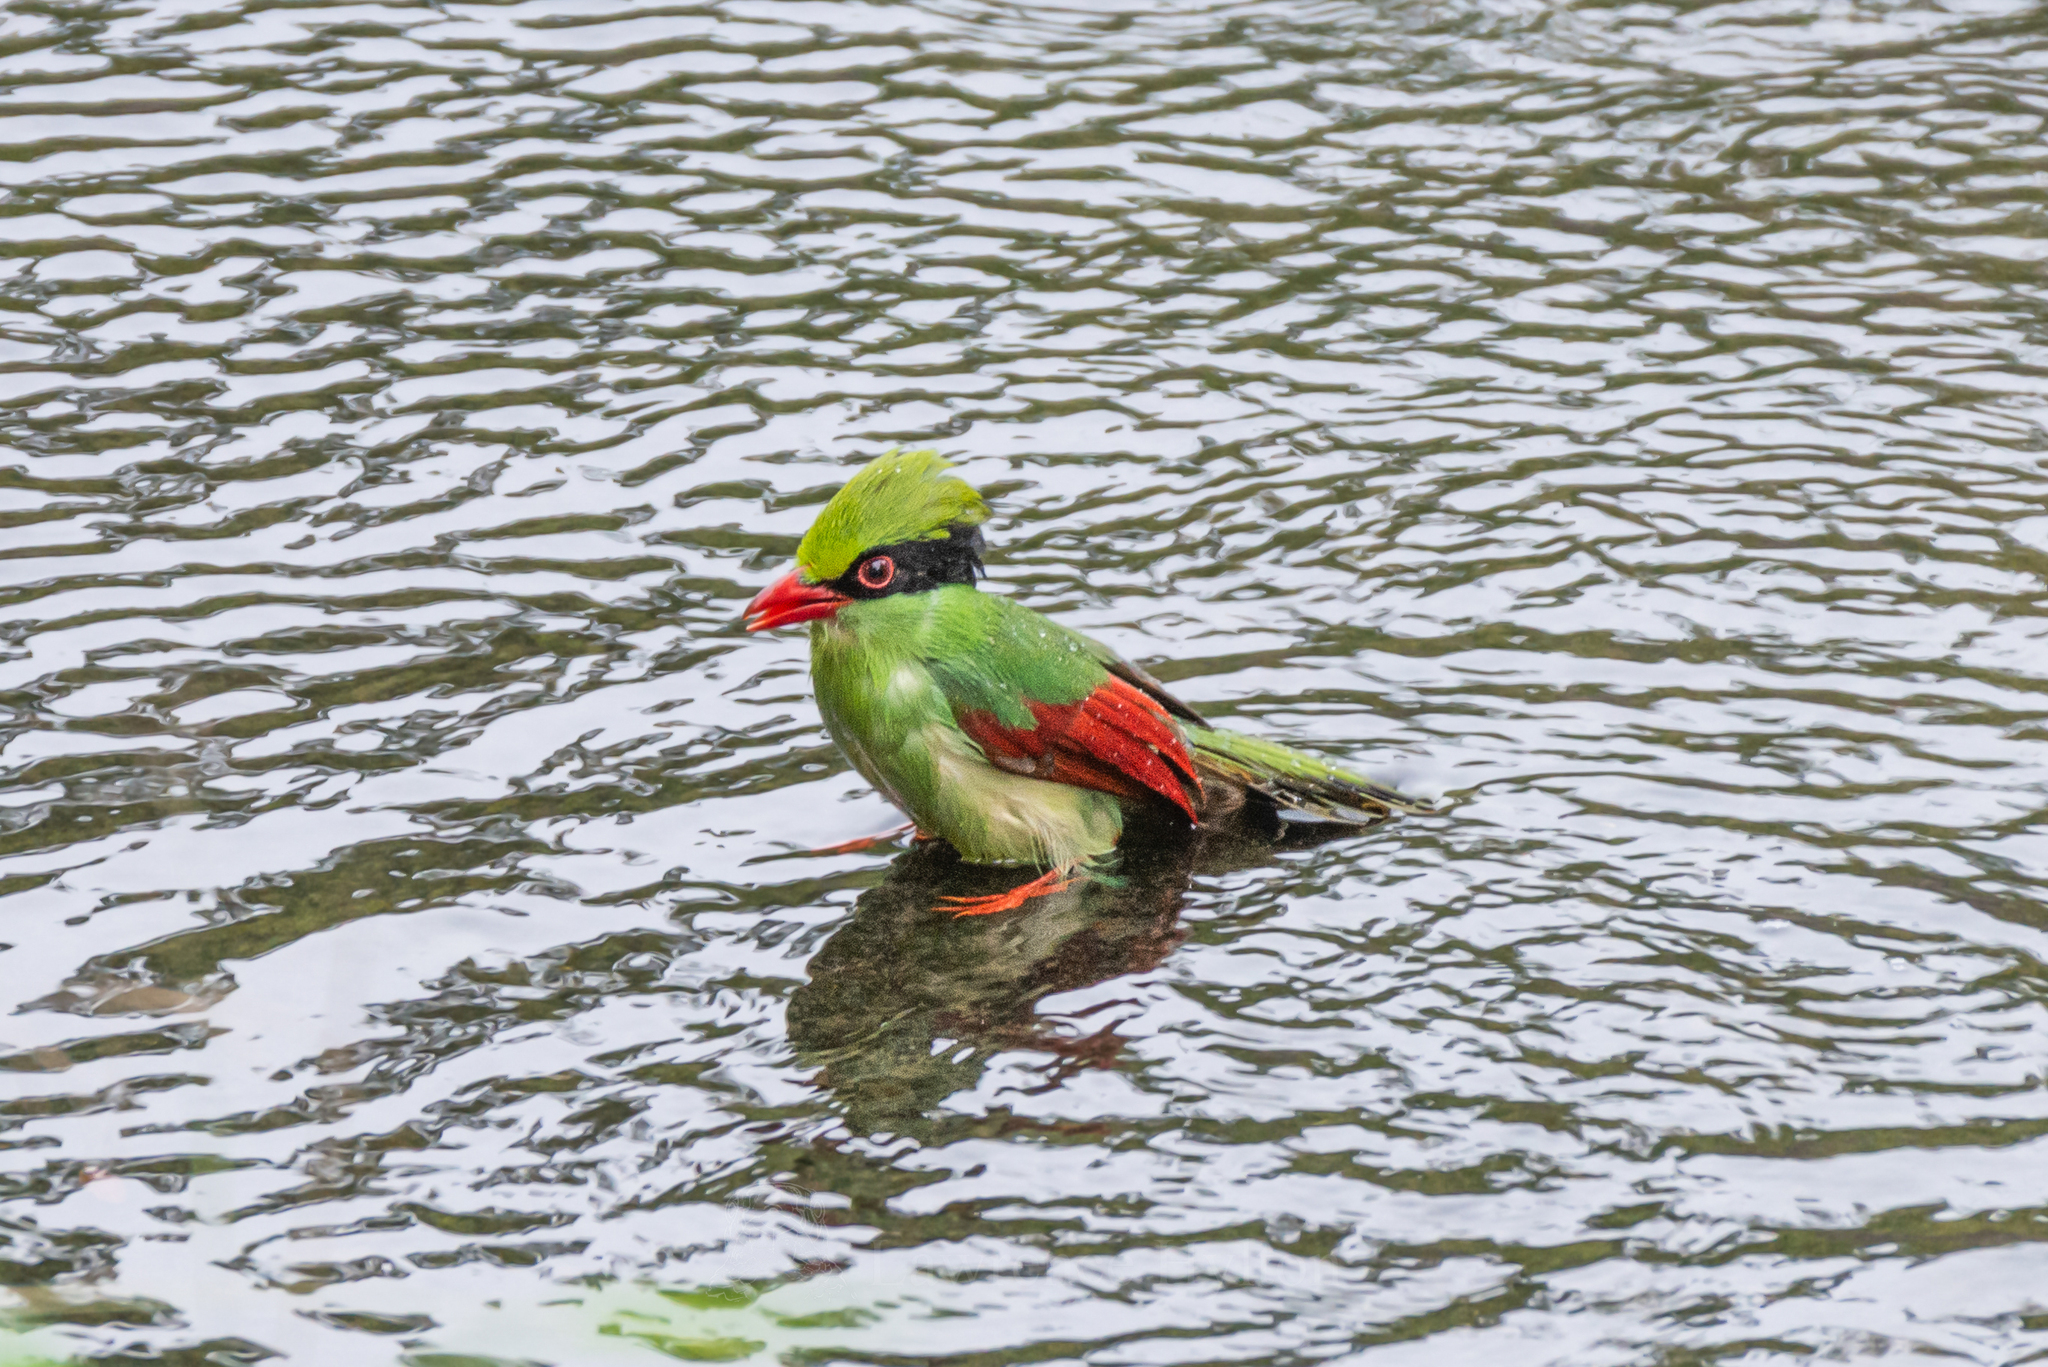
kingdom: Animalia
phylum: Chordata
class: Aves
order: Passeriformes
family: Corvidae
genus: Cissa
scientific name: Cissa hypoleuca
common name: Indochinese green magpie
